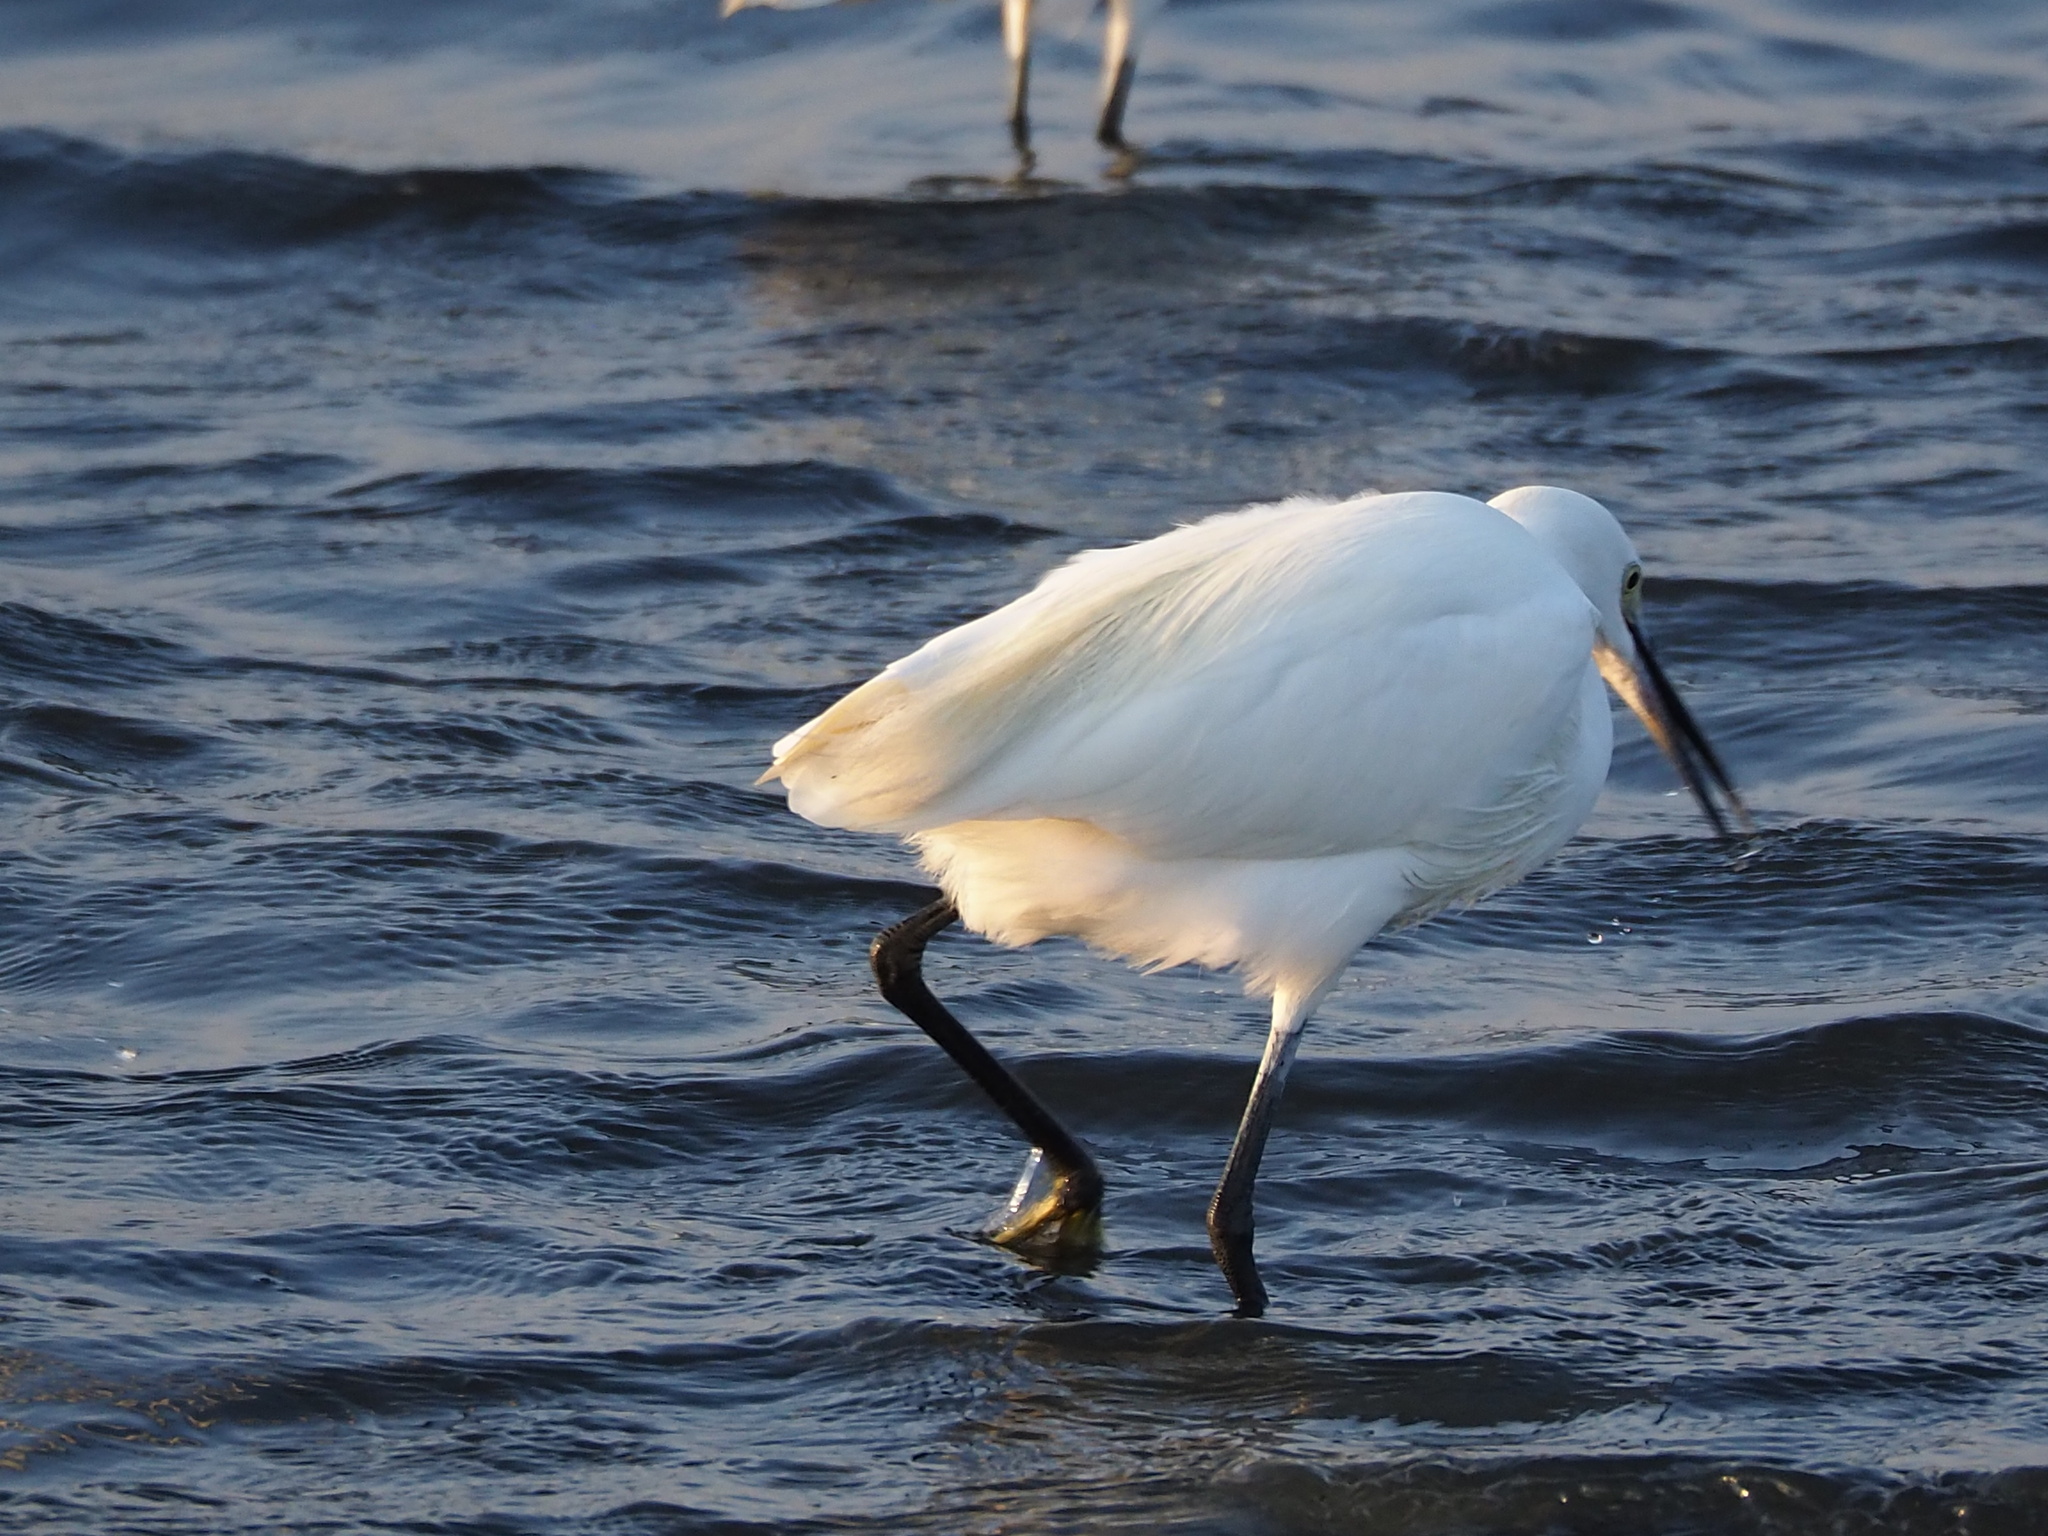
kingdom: Animalia
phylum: Chordata
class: Aves
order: Pelecaniformes
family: Ardeidae
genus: Egretta
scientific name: Egretta garzetta
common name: Little egret
